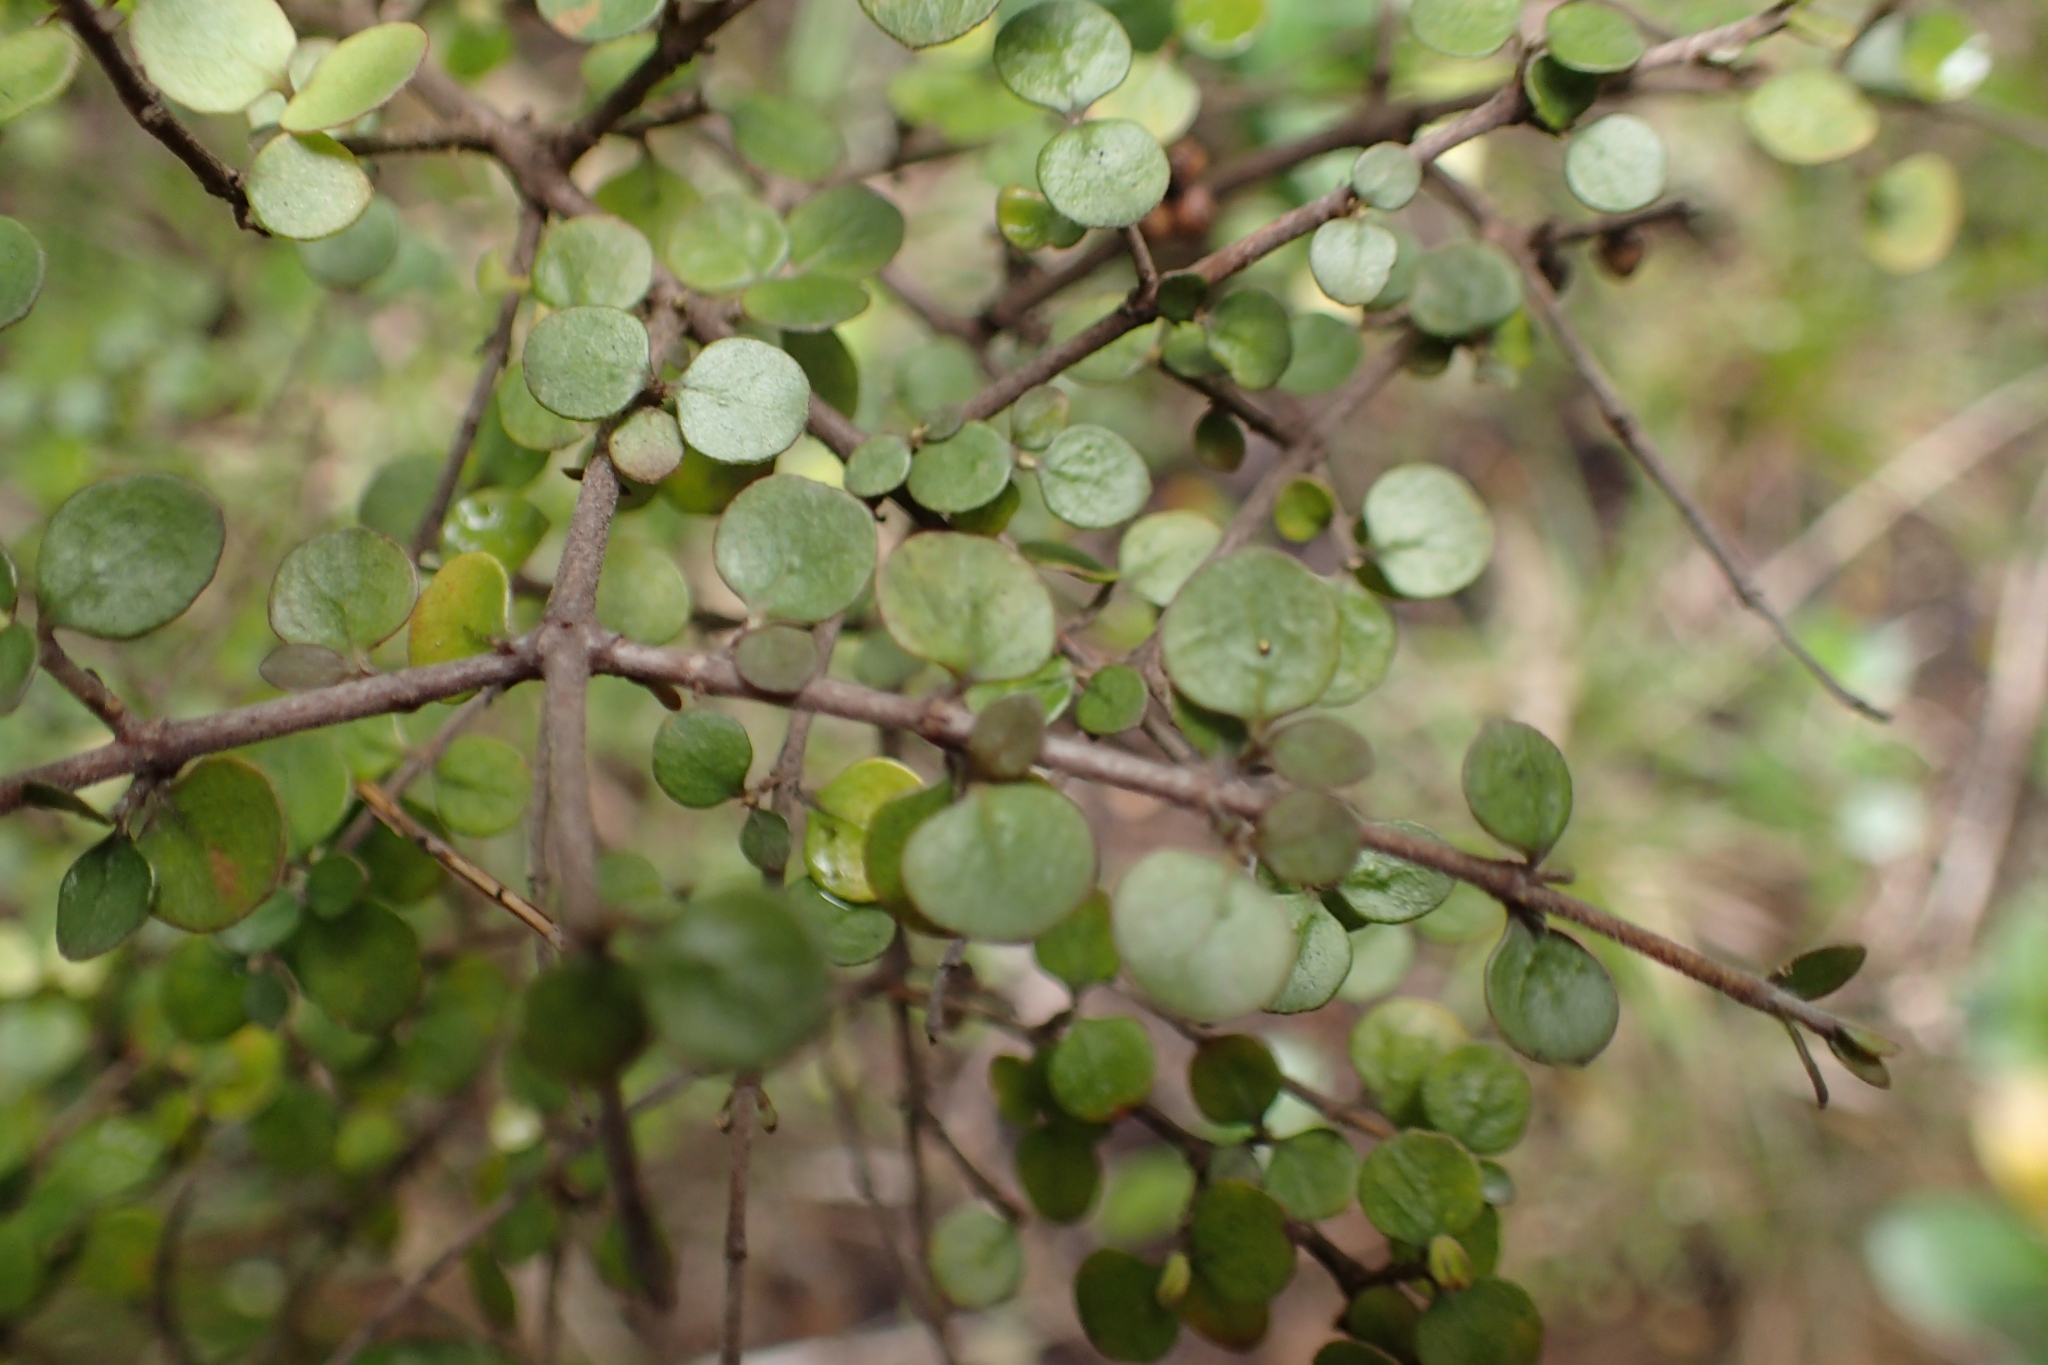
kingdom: Plantae
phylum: Tracheophyta
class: Magnoliopsida
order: Gentianales
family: Rubiaceae
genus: Coprosma
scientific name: Coprosma rhamnoides
